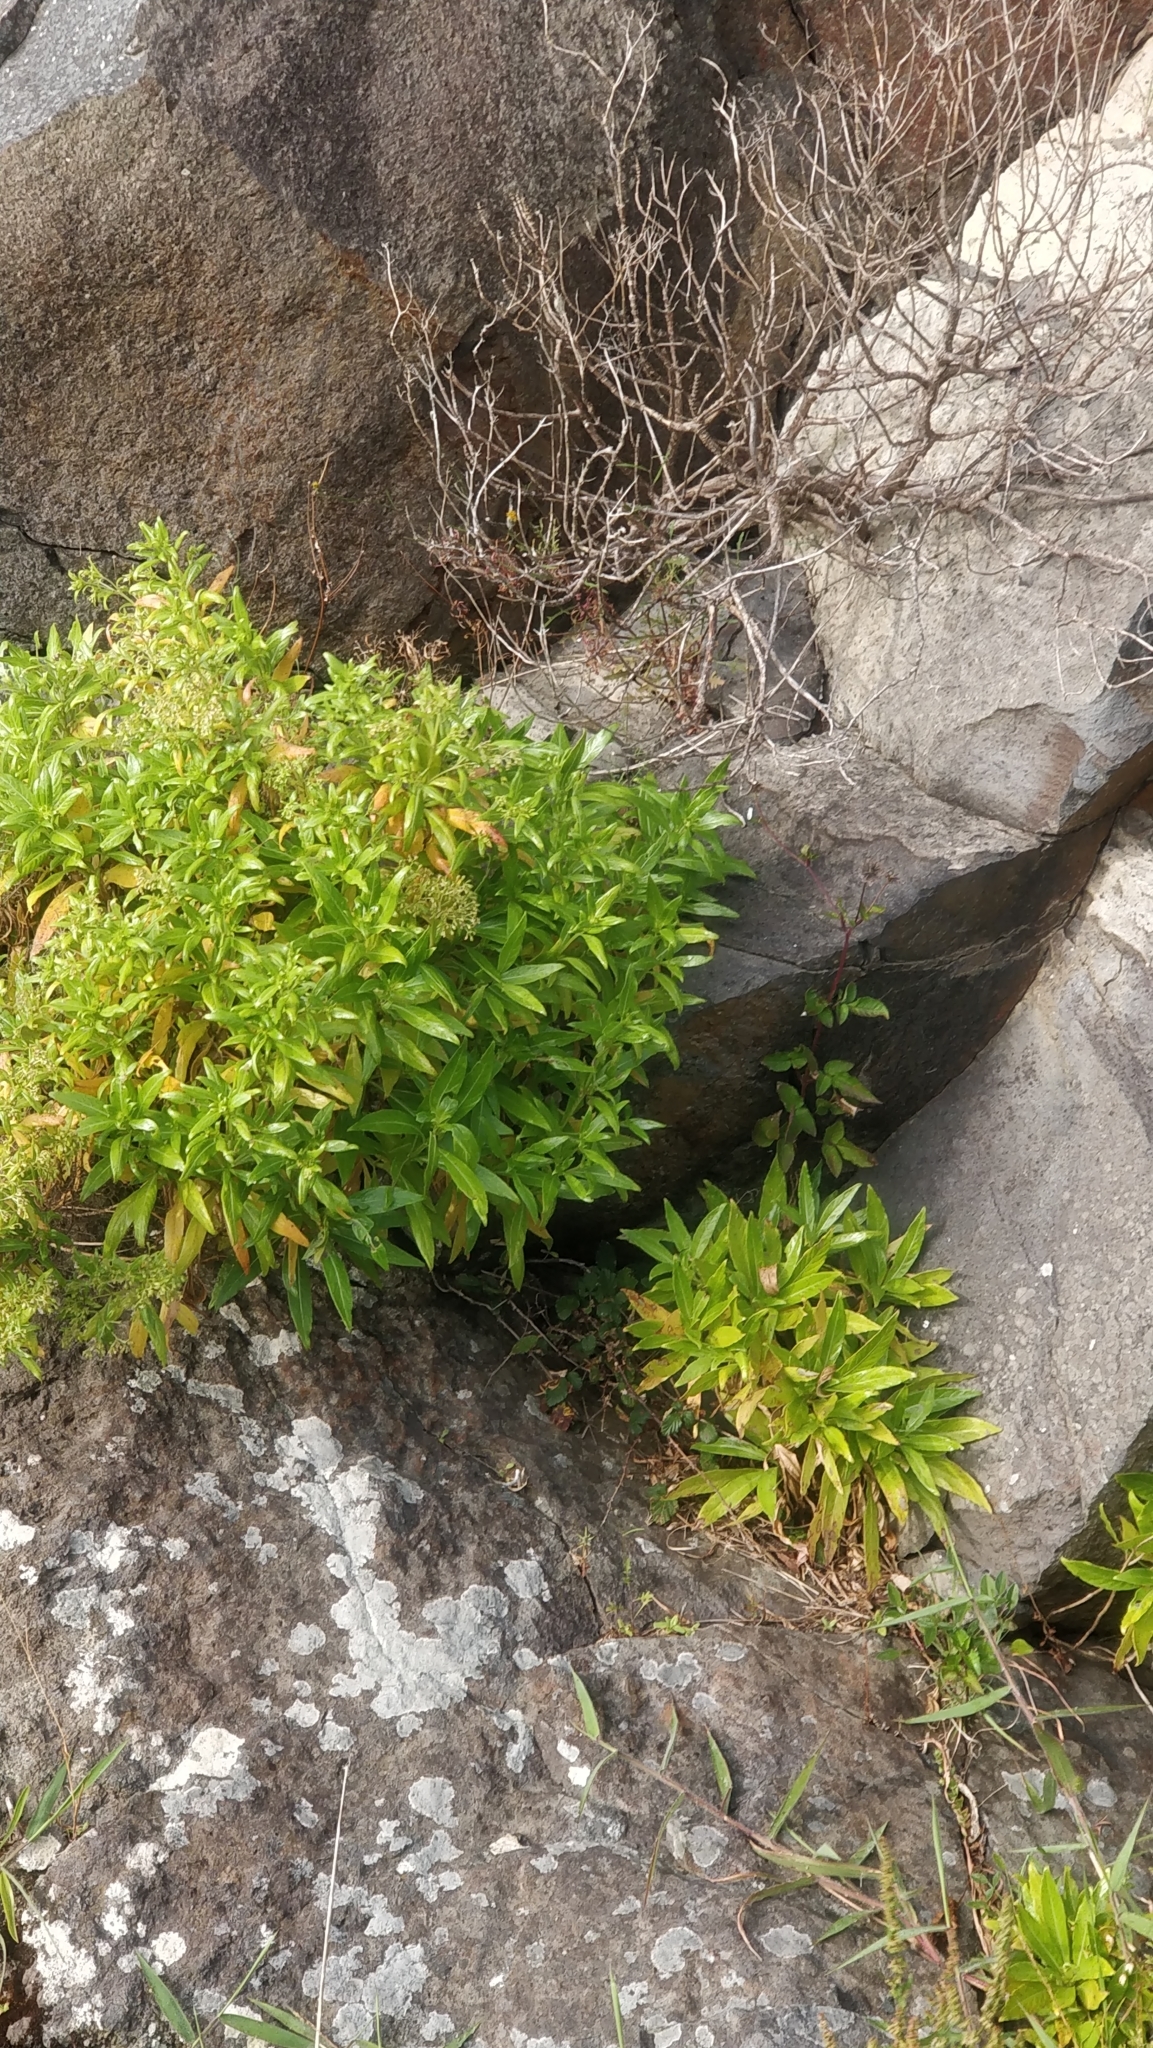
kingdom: Plantae
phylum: Tracheophyta
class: Magnoliopsida
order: Gentianales
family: Rubiaceae
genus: Phyllis
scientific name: Phyllis nobla
